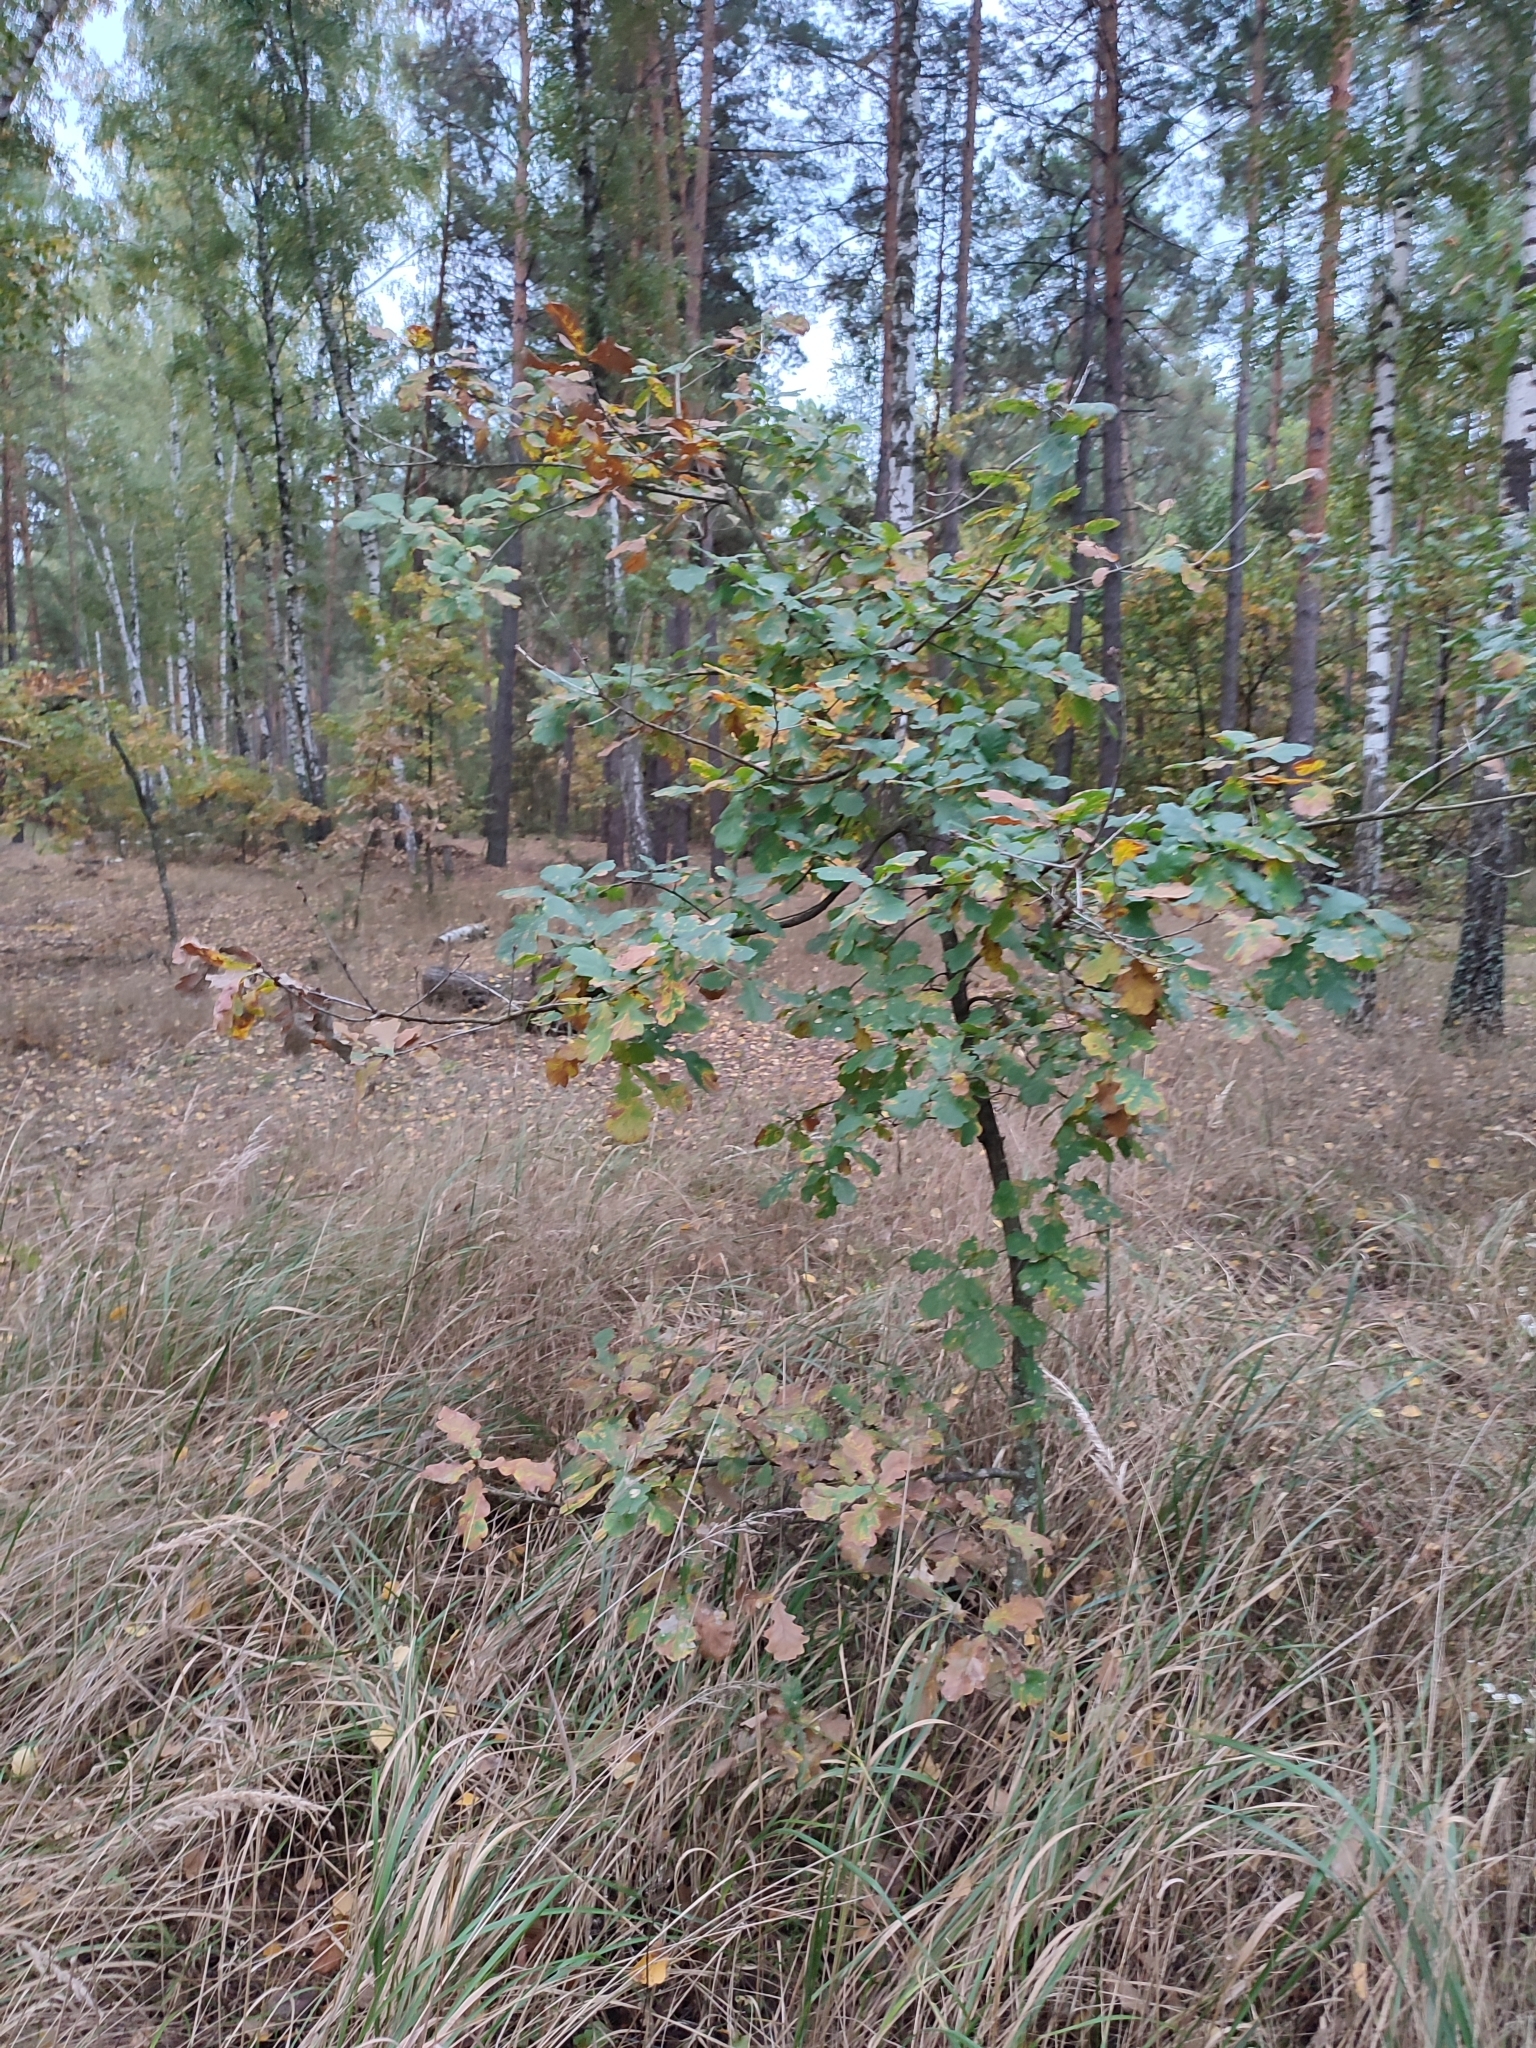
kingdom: Plantae
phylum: Tracheophyta
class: Magnoliopsida
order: Fagales
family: Fagaceae
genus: Quercus
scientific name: Quercus robur
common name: Pedunculate oak
